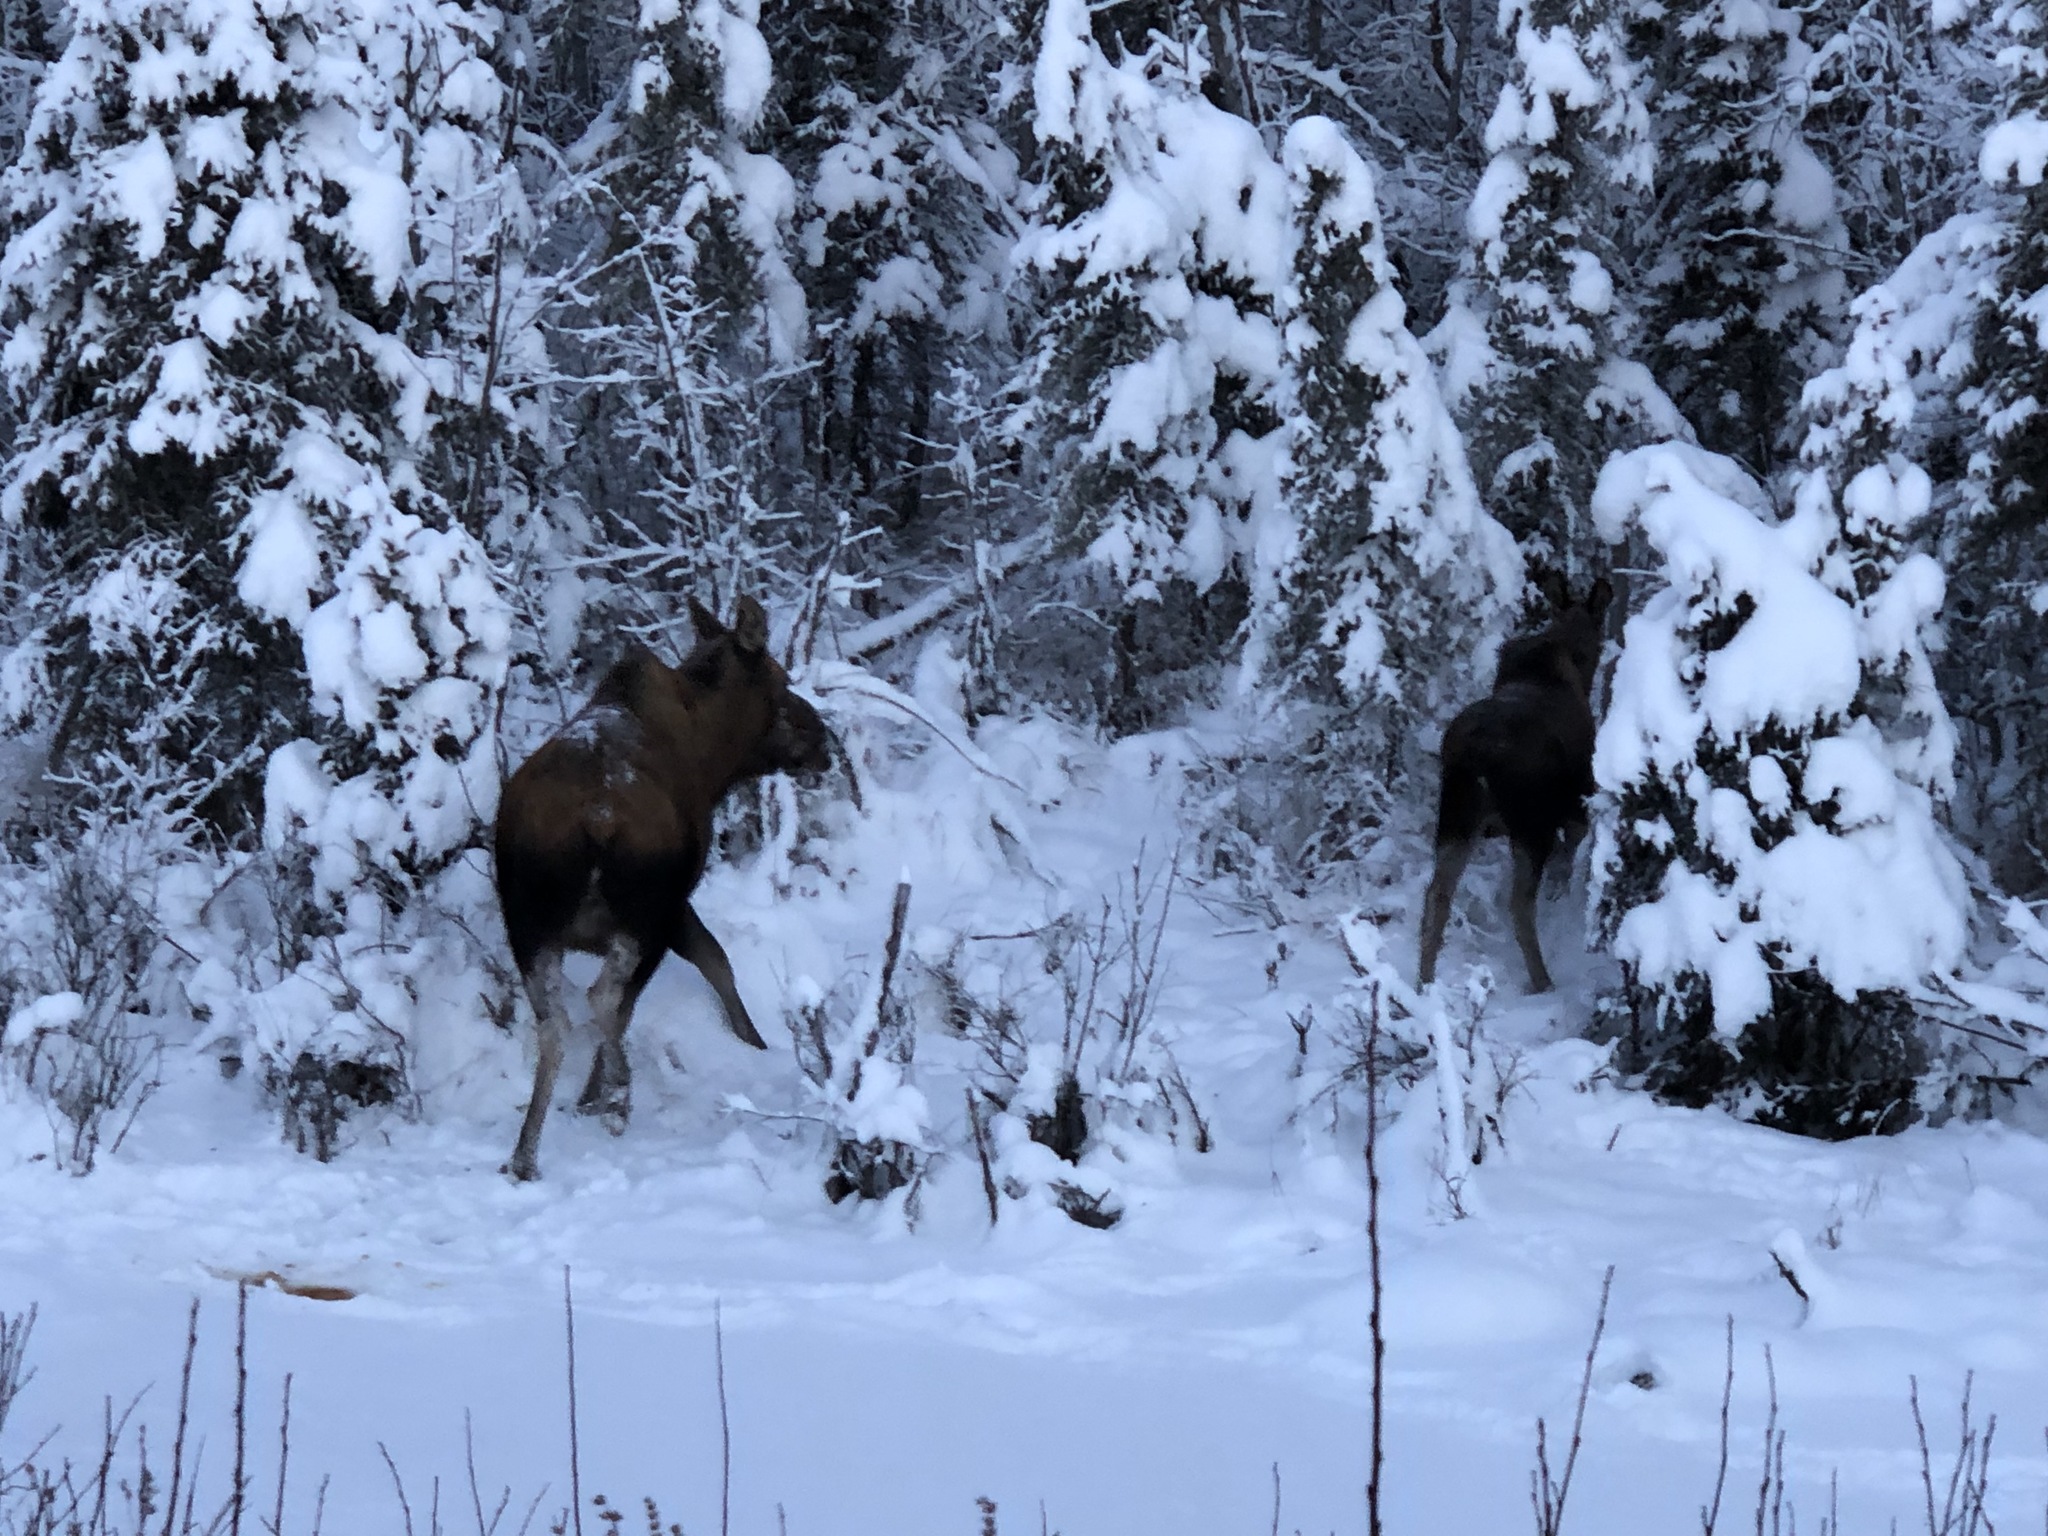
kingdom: Animalia
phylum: Chordata
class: Mammalia
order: Artiodactyla
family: Cervidae
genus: Alces
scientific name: Alces alces
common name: Moose
